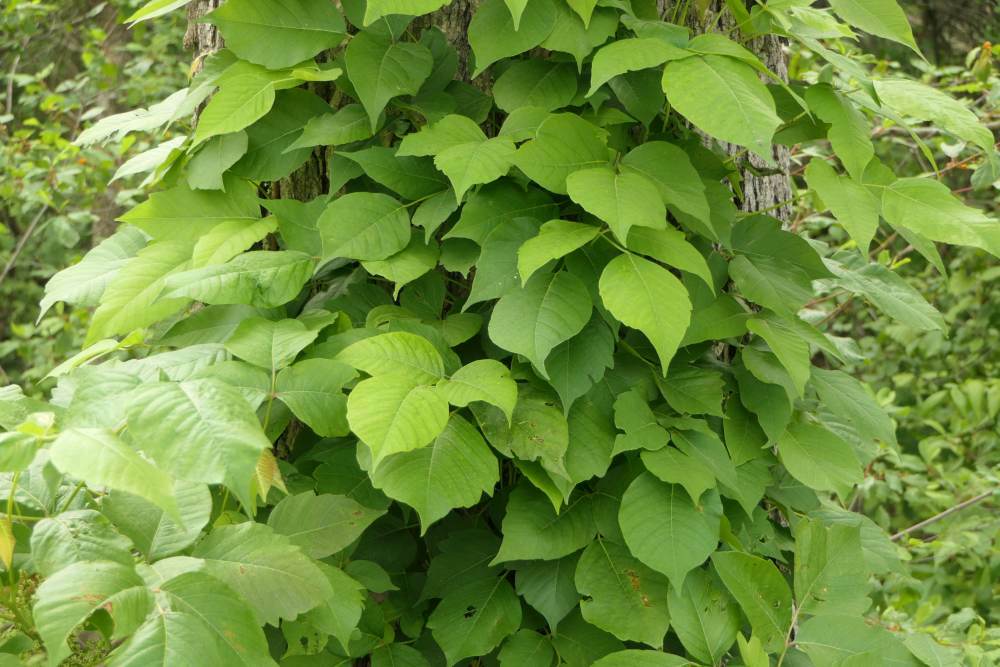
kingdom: Plantae
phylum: Tracheophyta
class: Magnoliopsida
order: Sapindales
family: Anacardiaceae
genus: Toxicodendron
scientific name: Toxicodendron radicans
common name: Poison ivy
